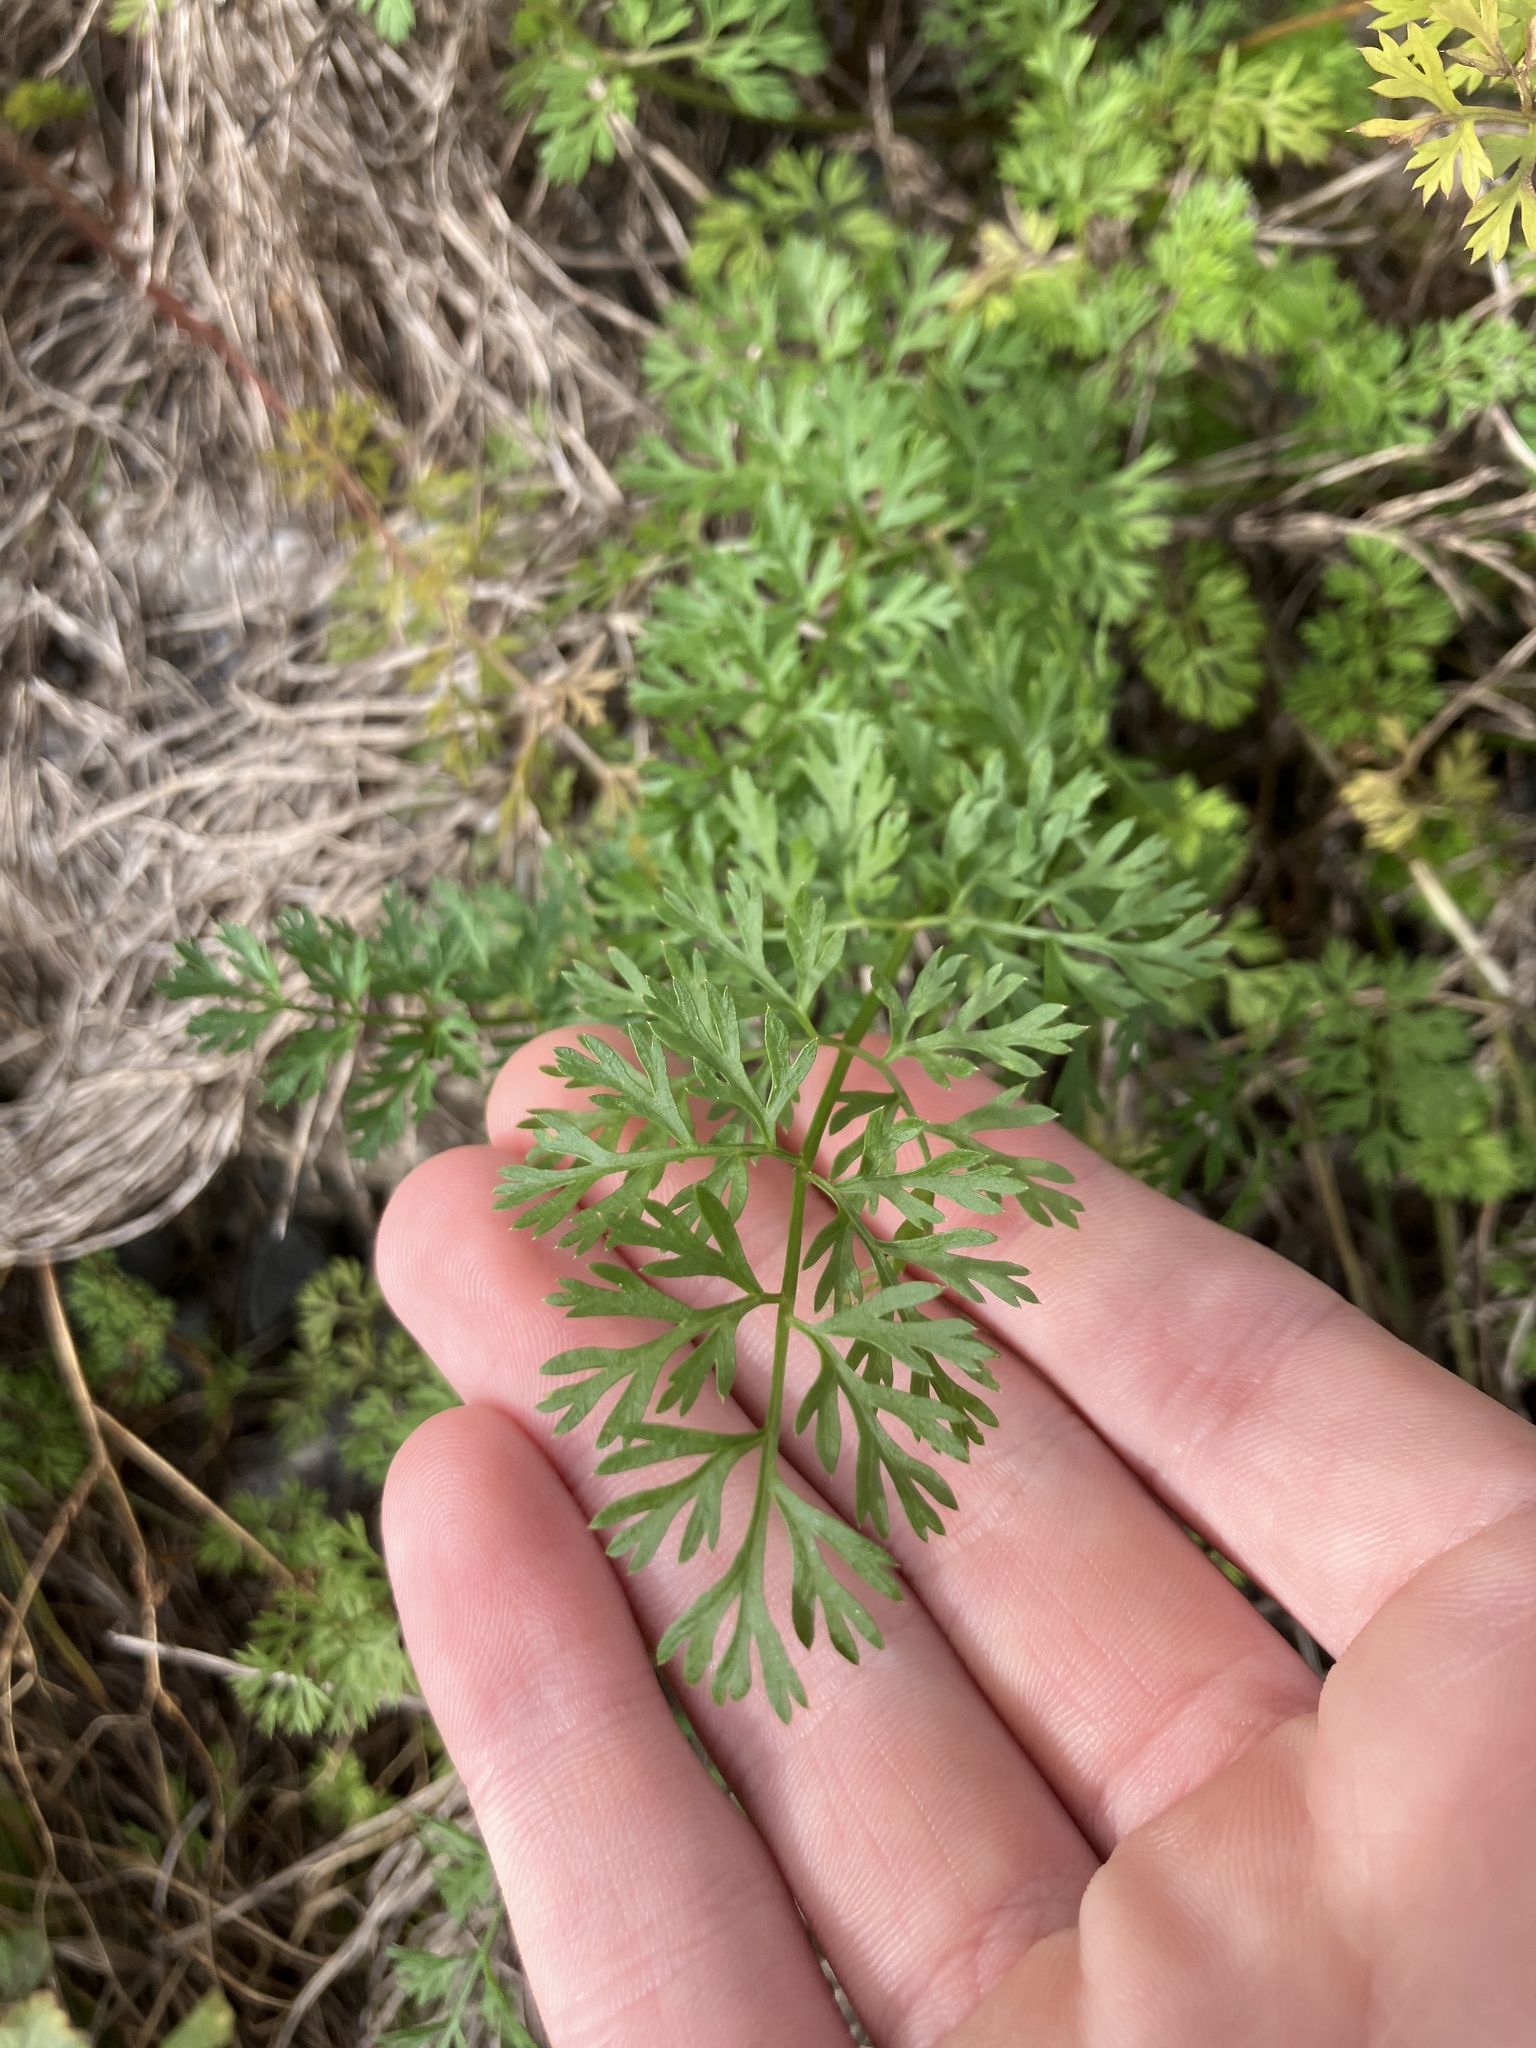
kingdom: Plantae
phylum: Tracheophyta
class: Magnoliopsida
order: Apiales
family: Apiaceae
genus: Daucus
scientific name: Daucus carota
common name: Wild carrot
